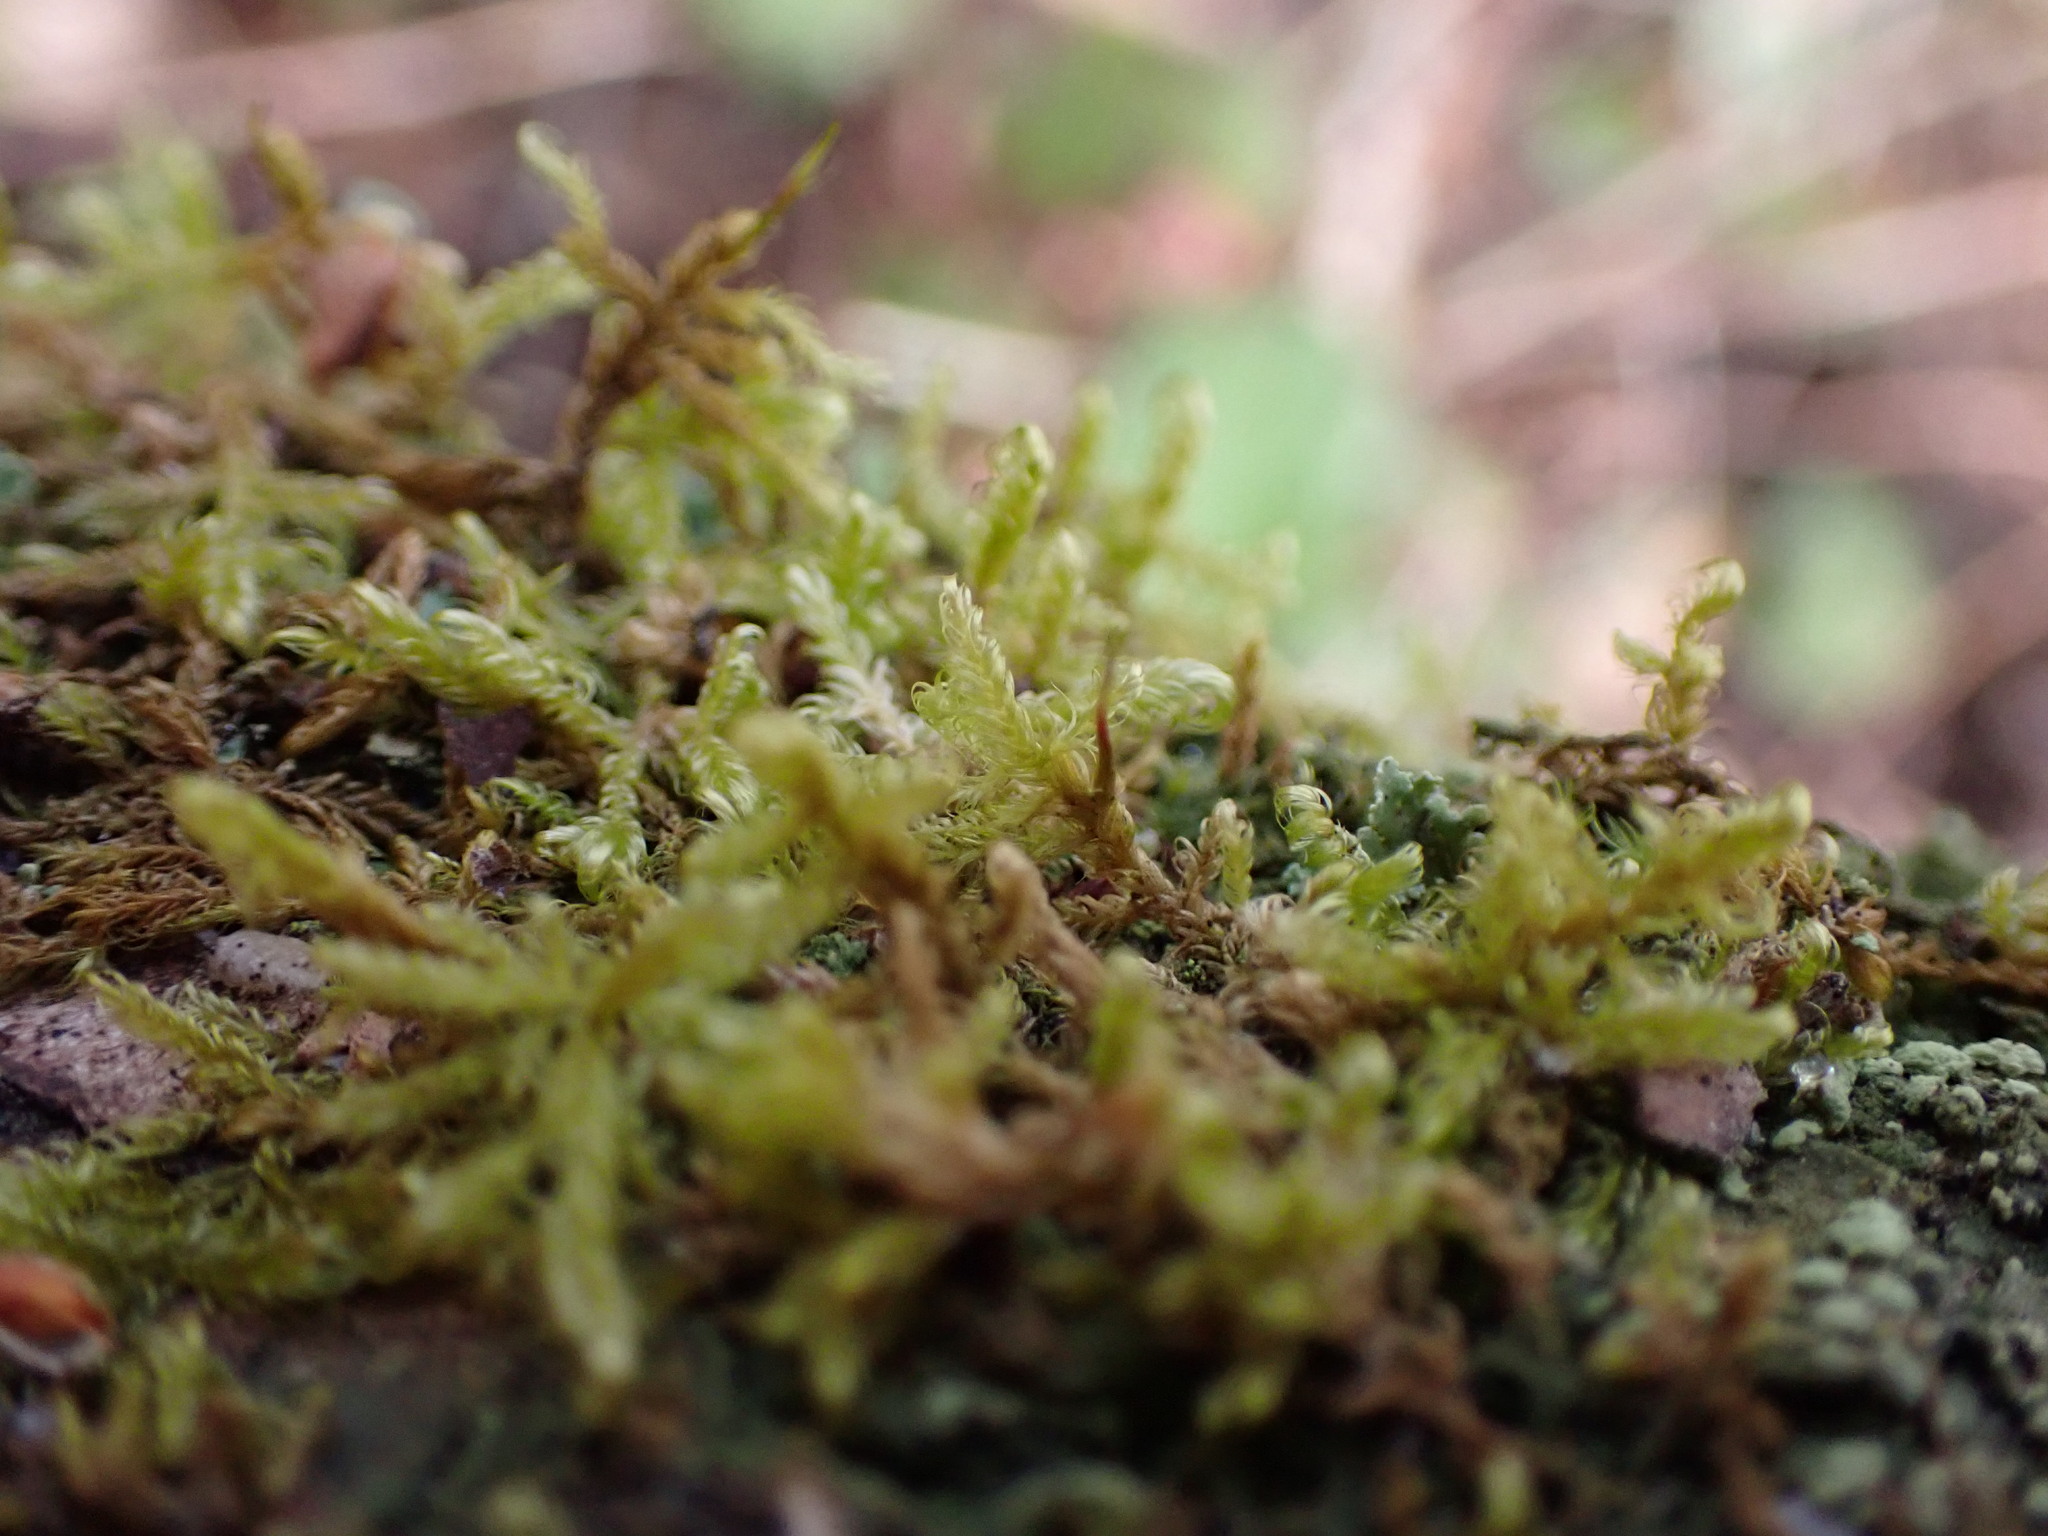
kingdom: Plantae
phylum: Bryophyta
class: Bryopsida
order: Hypnales
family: Scorpidiaceae
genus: Sanionia
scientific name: Sanionia uncinata
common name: Sickle moss
